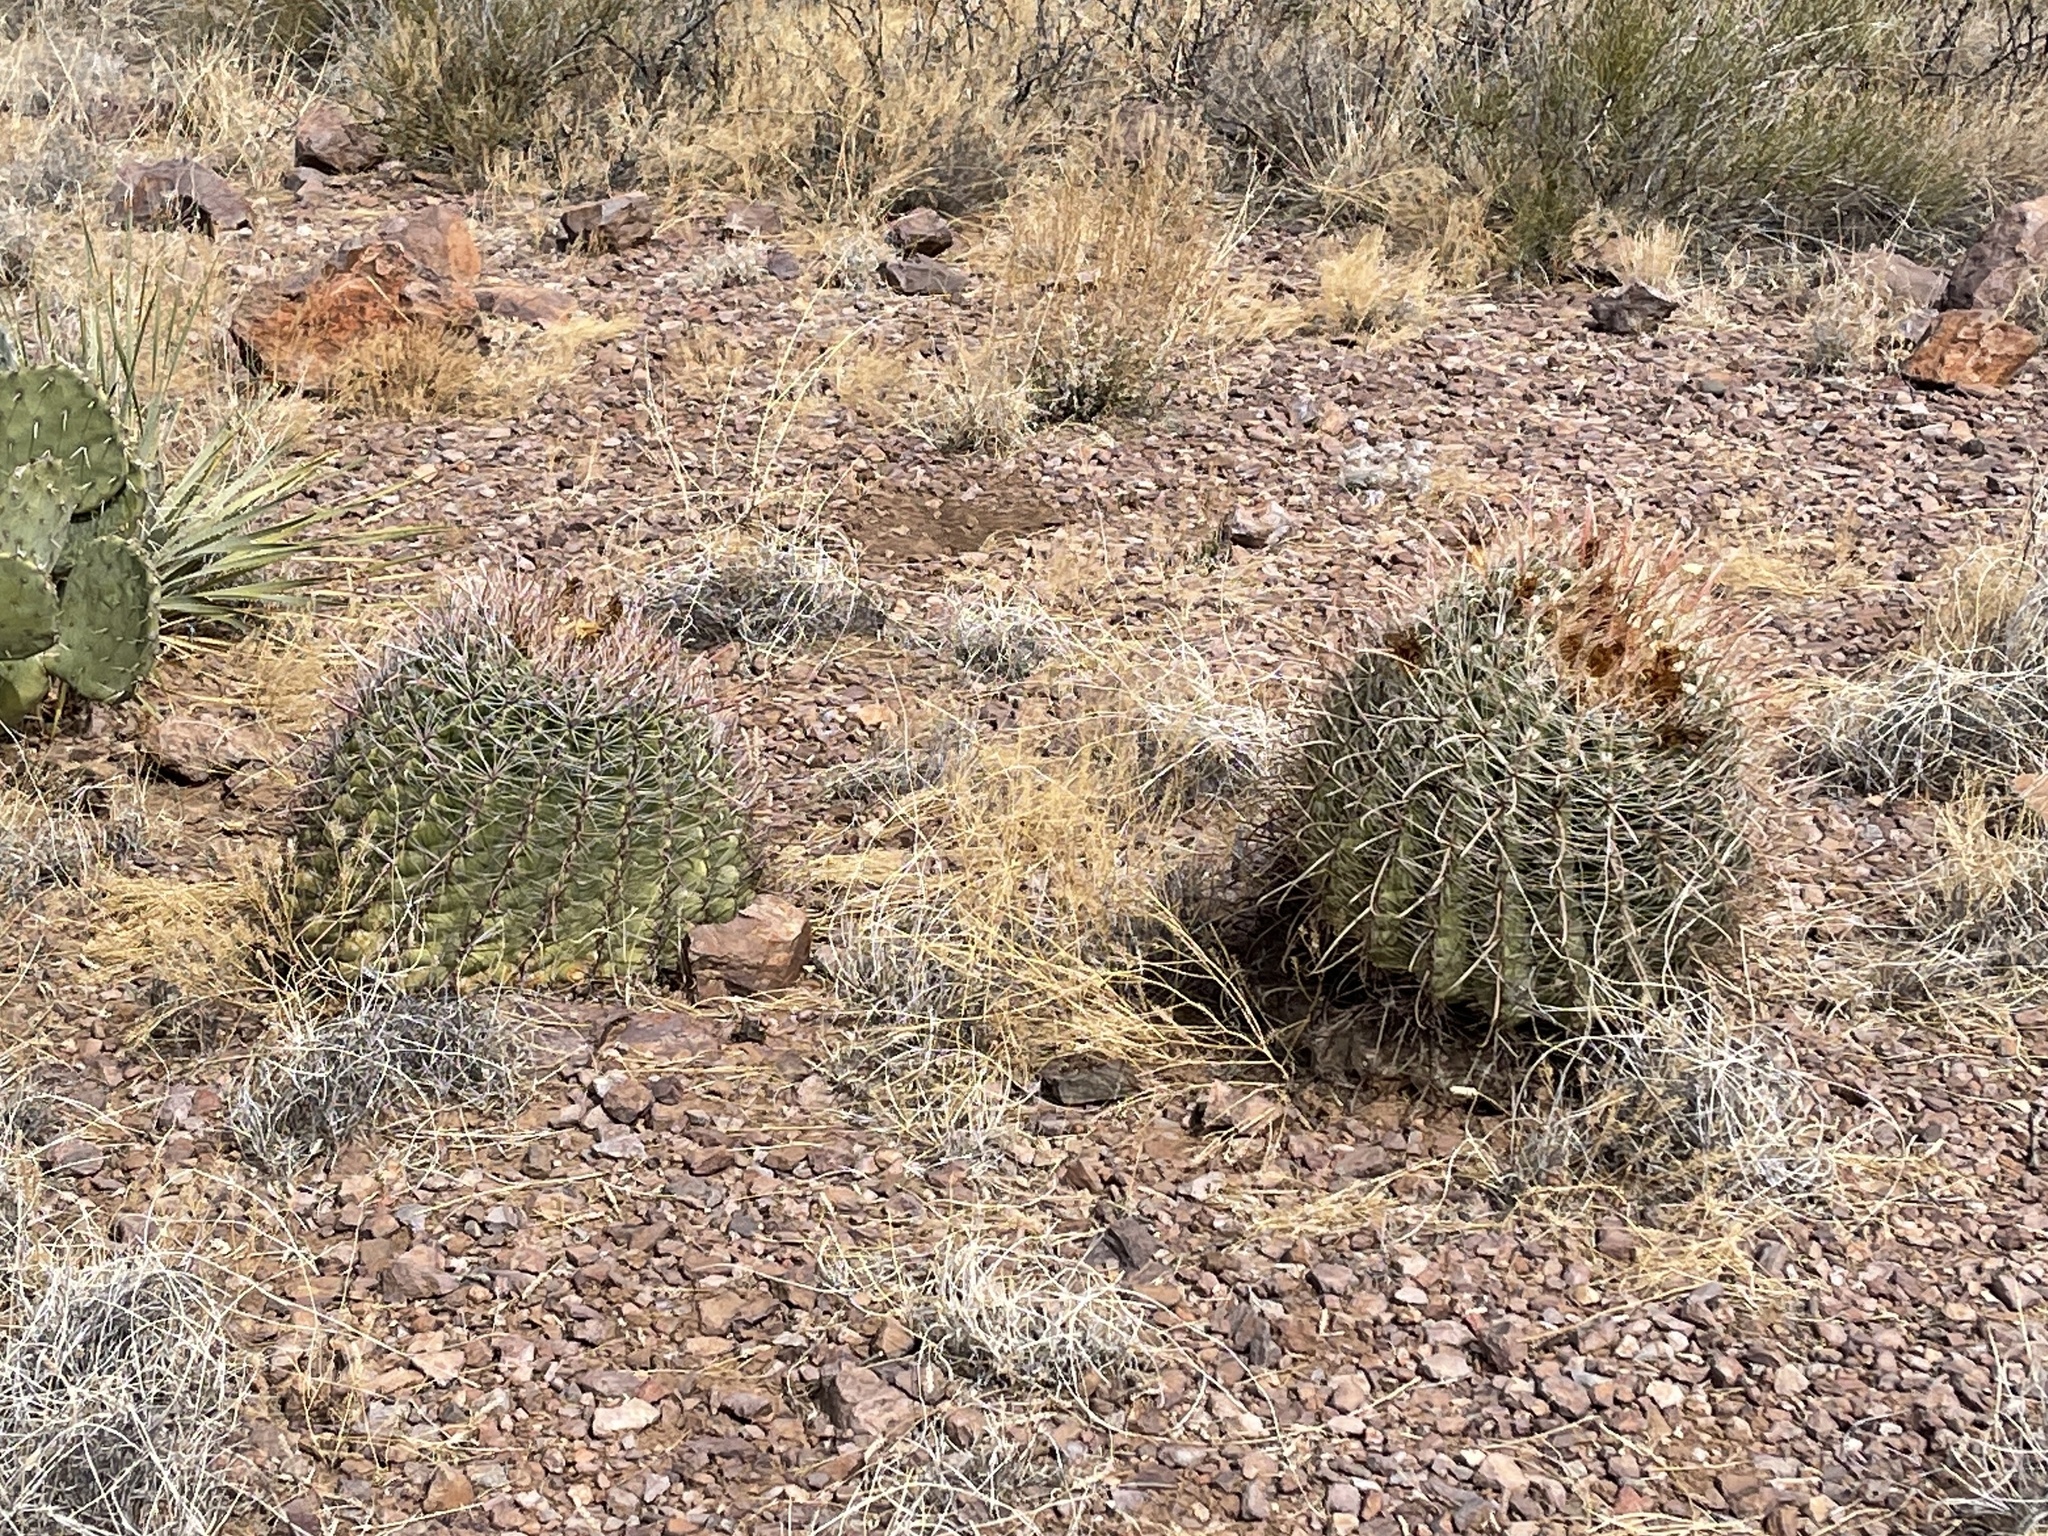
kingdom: Plantae
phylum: Tracheophyta
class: Magnoliopsida
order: Caryophyllales
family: Cactaceae
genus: Ferocactus
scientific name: Ferocactus wislizeni
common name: Candy barrel cactus
